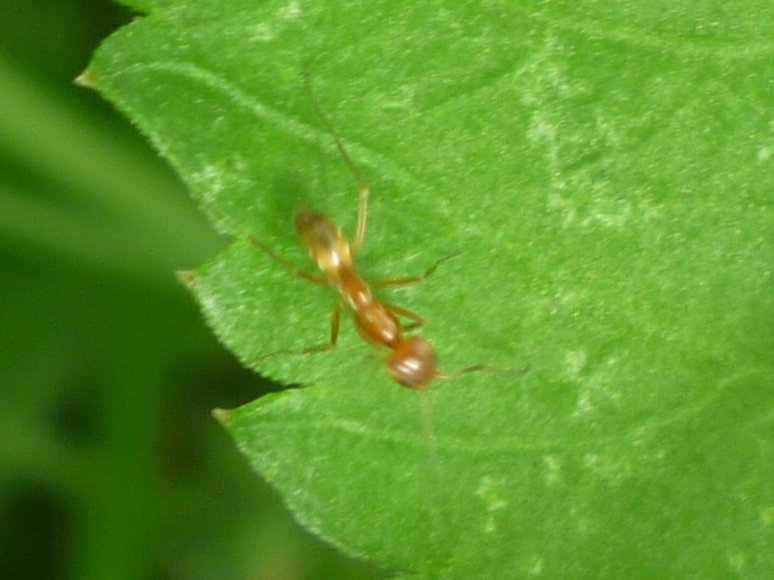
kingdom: Animalia
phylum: Arthropoda
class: Insecta
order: Hymenoptera
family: Formicidae
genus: Dorymyrmex
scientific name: Dorymyrmex bureni
